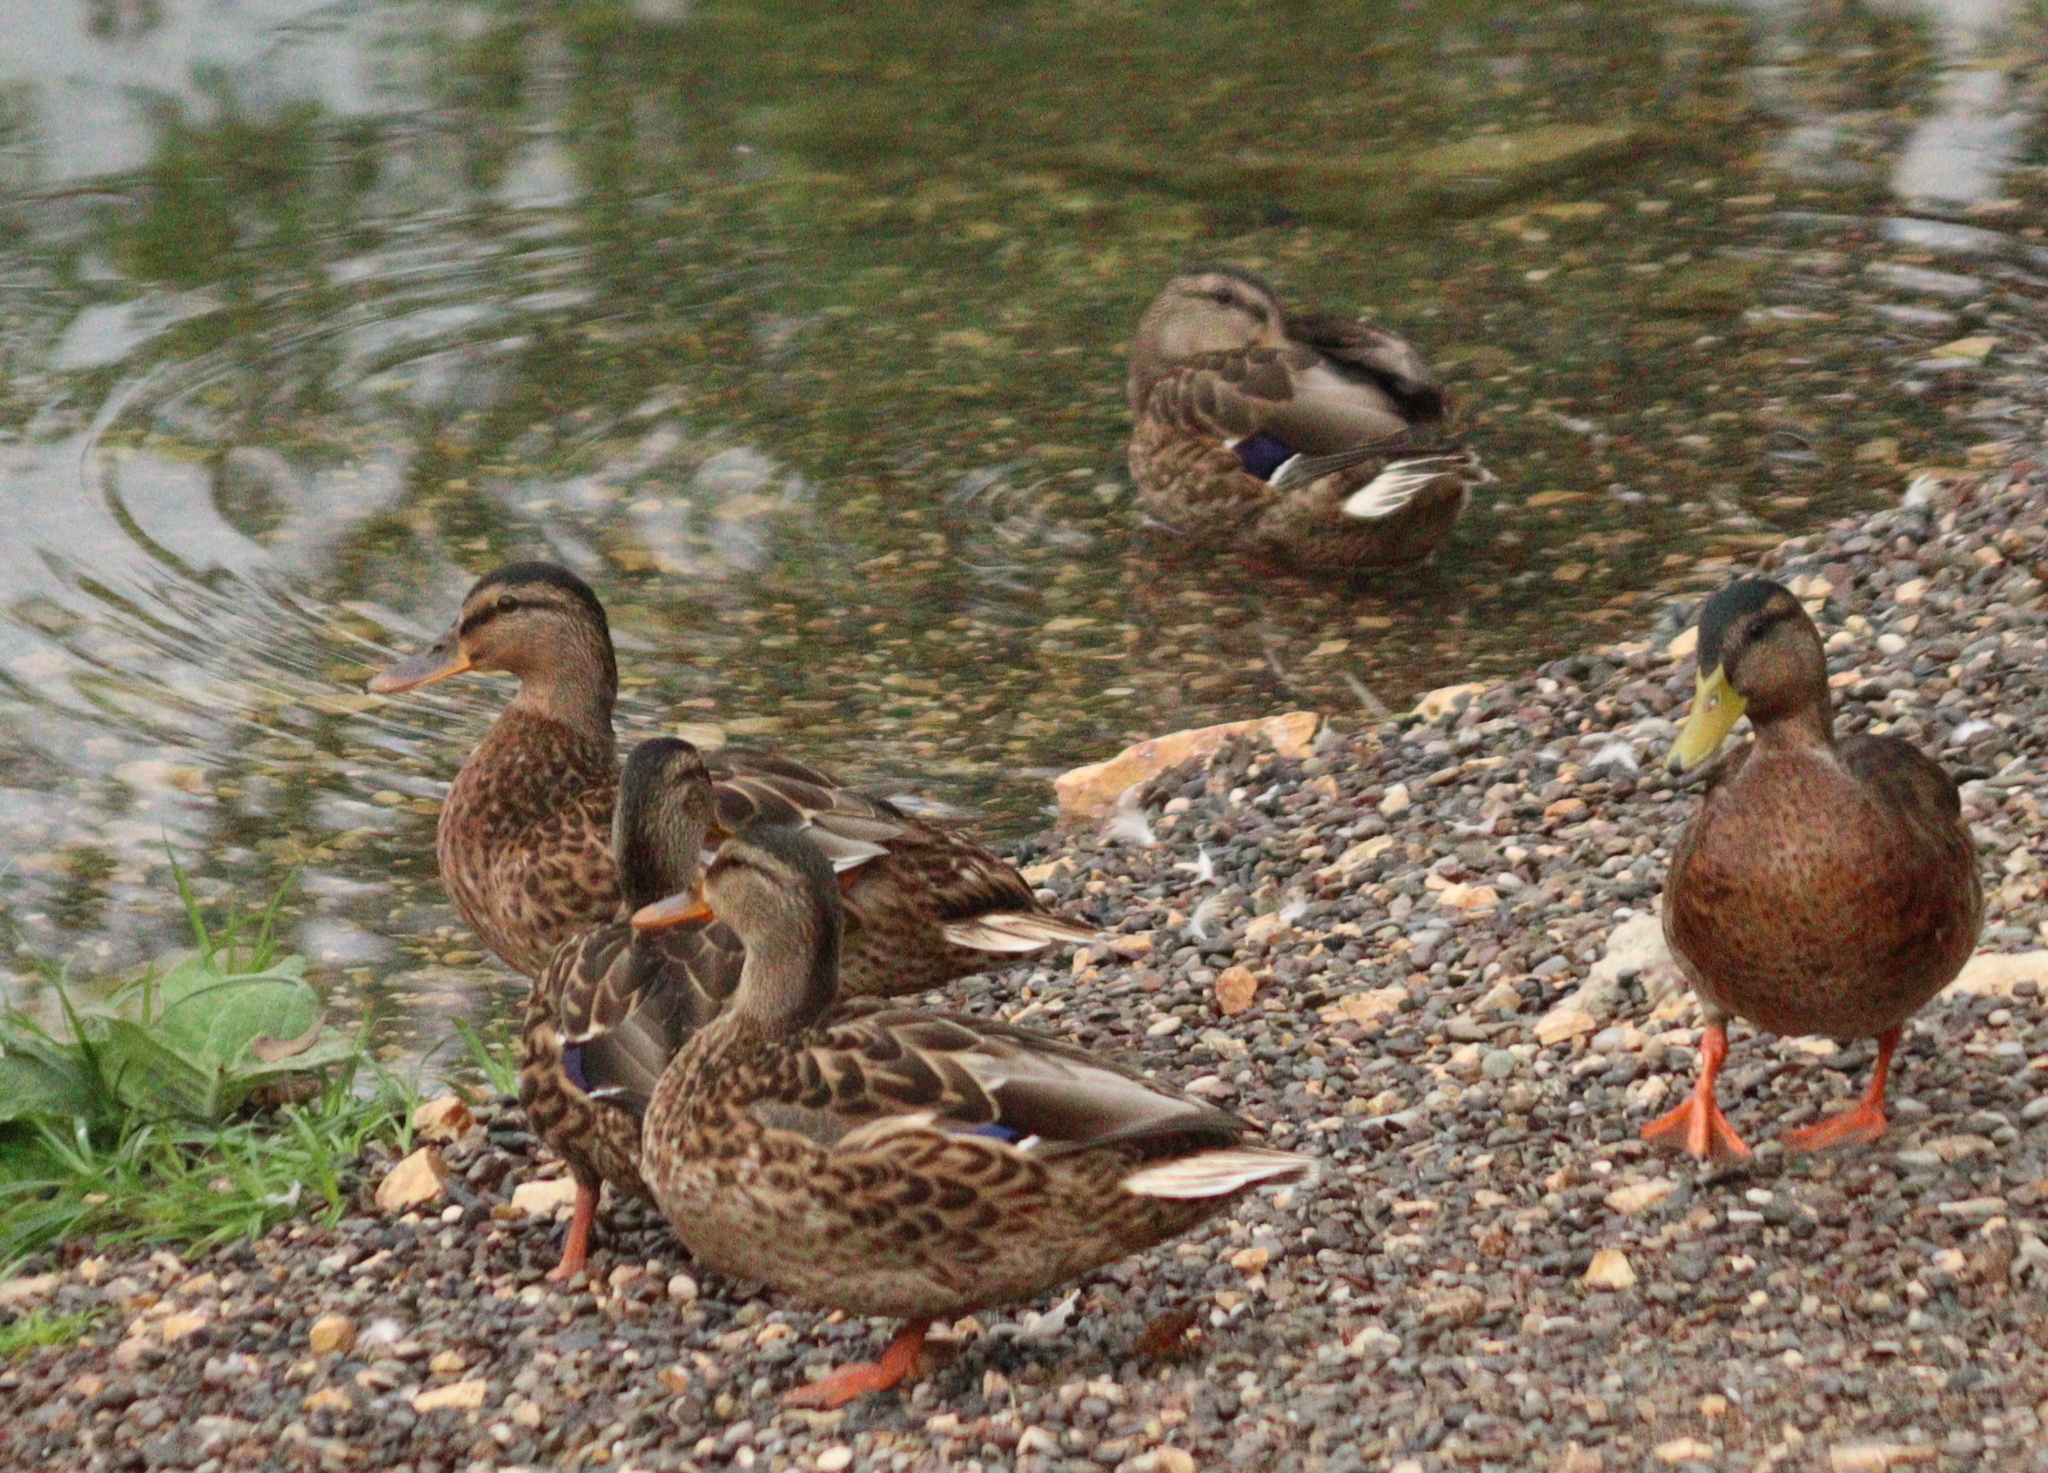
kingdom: Animalia
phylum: Chordata
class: Aves
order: Anseriformes
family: Anatidae
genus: Anas
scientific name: Anas platyrhynchos
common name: Mallard
